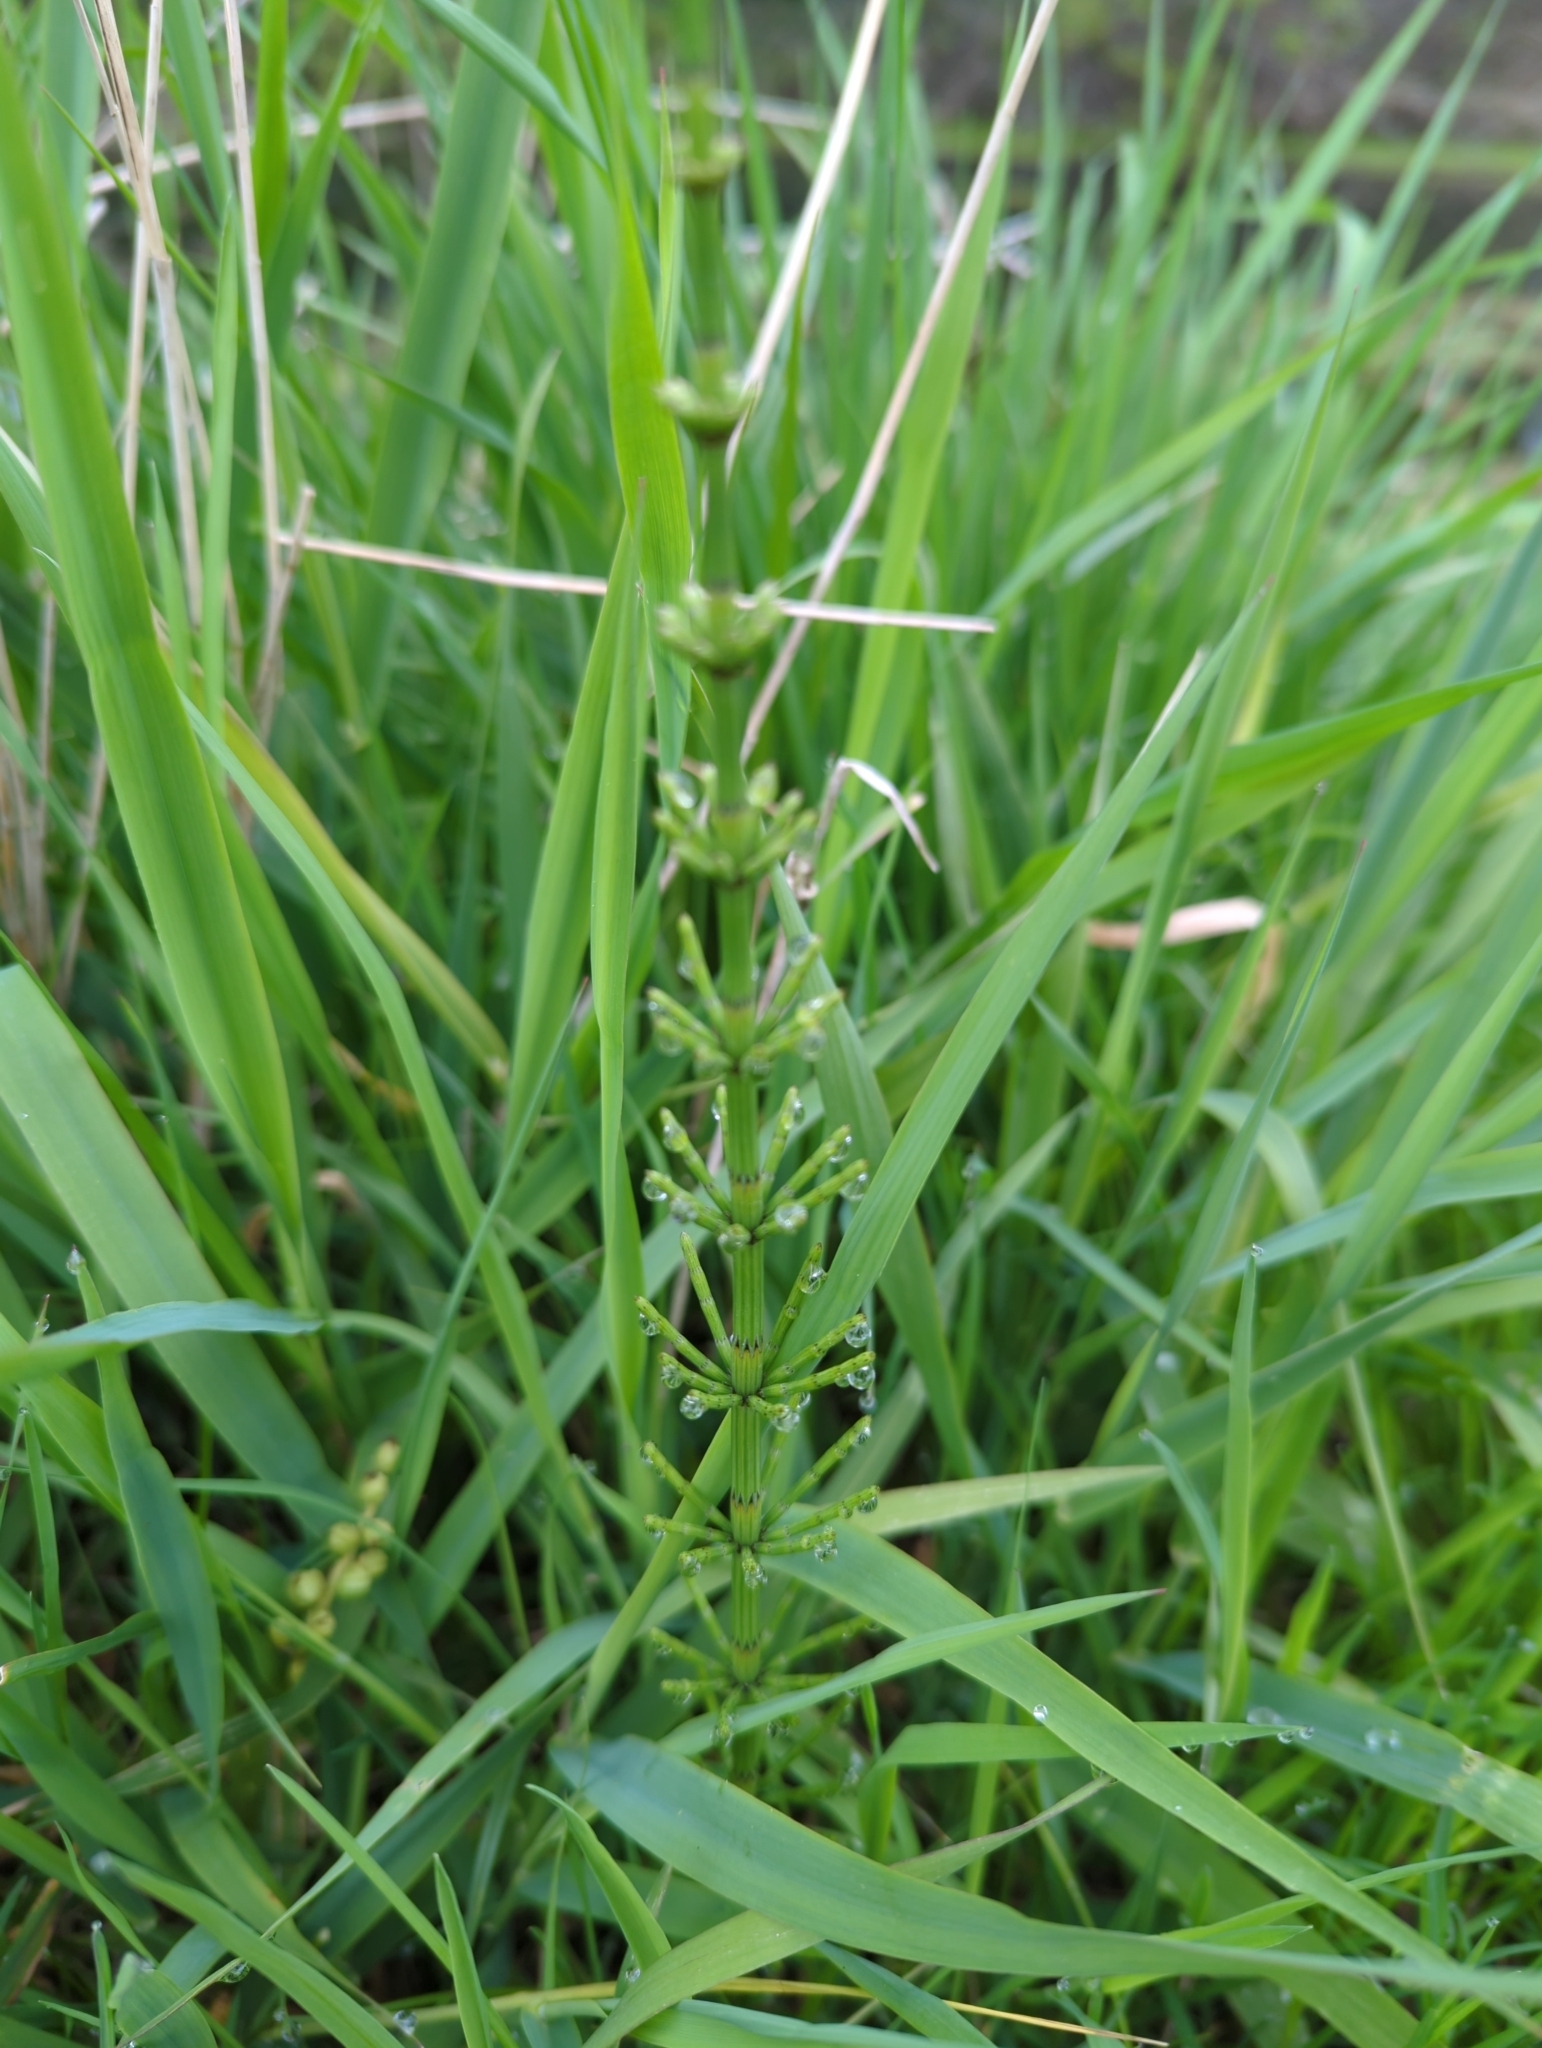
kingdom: Plantae
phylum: Tracheophyta
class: Polypodiopsida
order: Equisetales
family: Equisetaceae
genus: Equisetum
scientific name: Equisetum palustre
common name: Marsh horsetail
